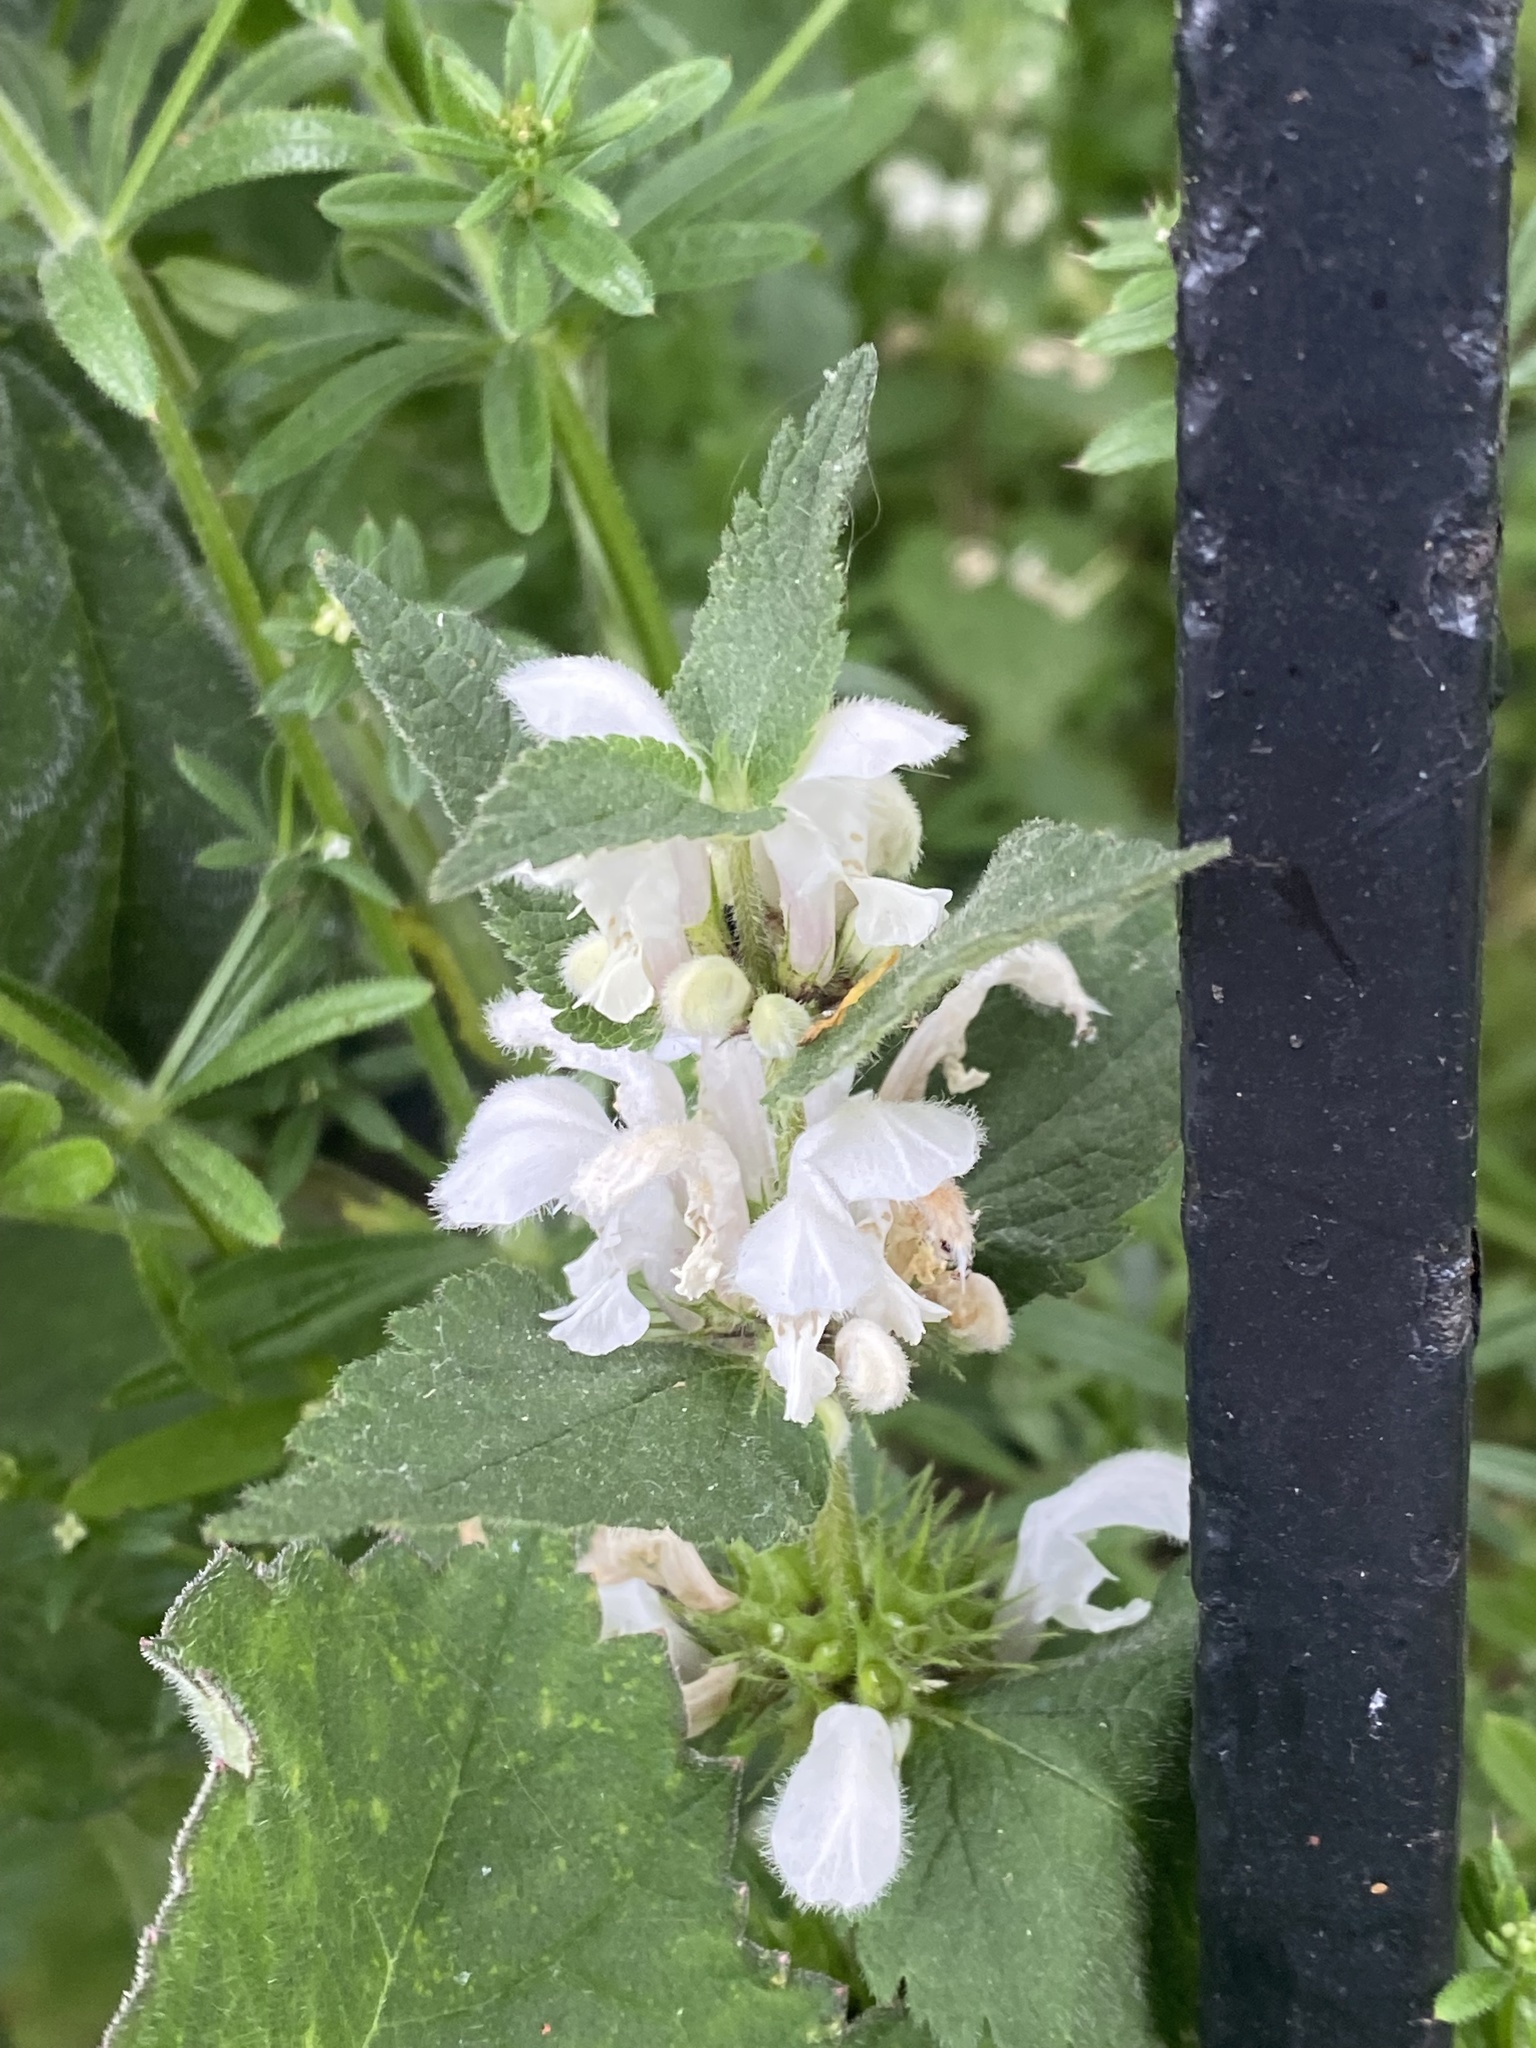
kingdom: Plantae
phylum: Tracheophyta
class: Magnoliopsida
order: Lamiales
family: Lamiaceae
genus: Lamium
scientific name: Lamium album
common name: White dead-nettle
